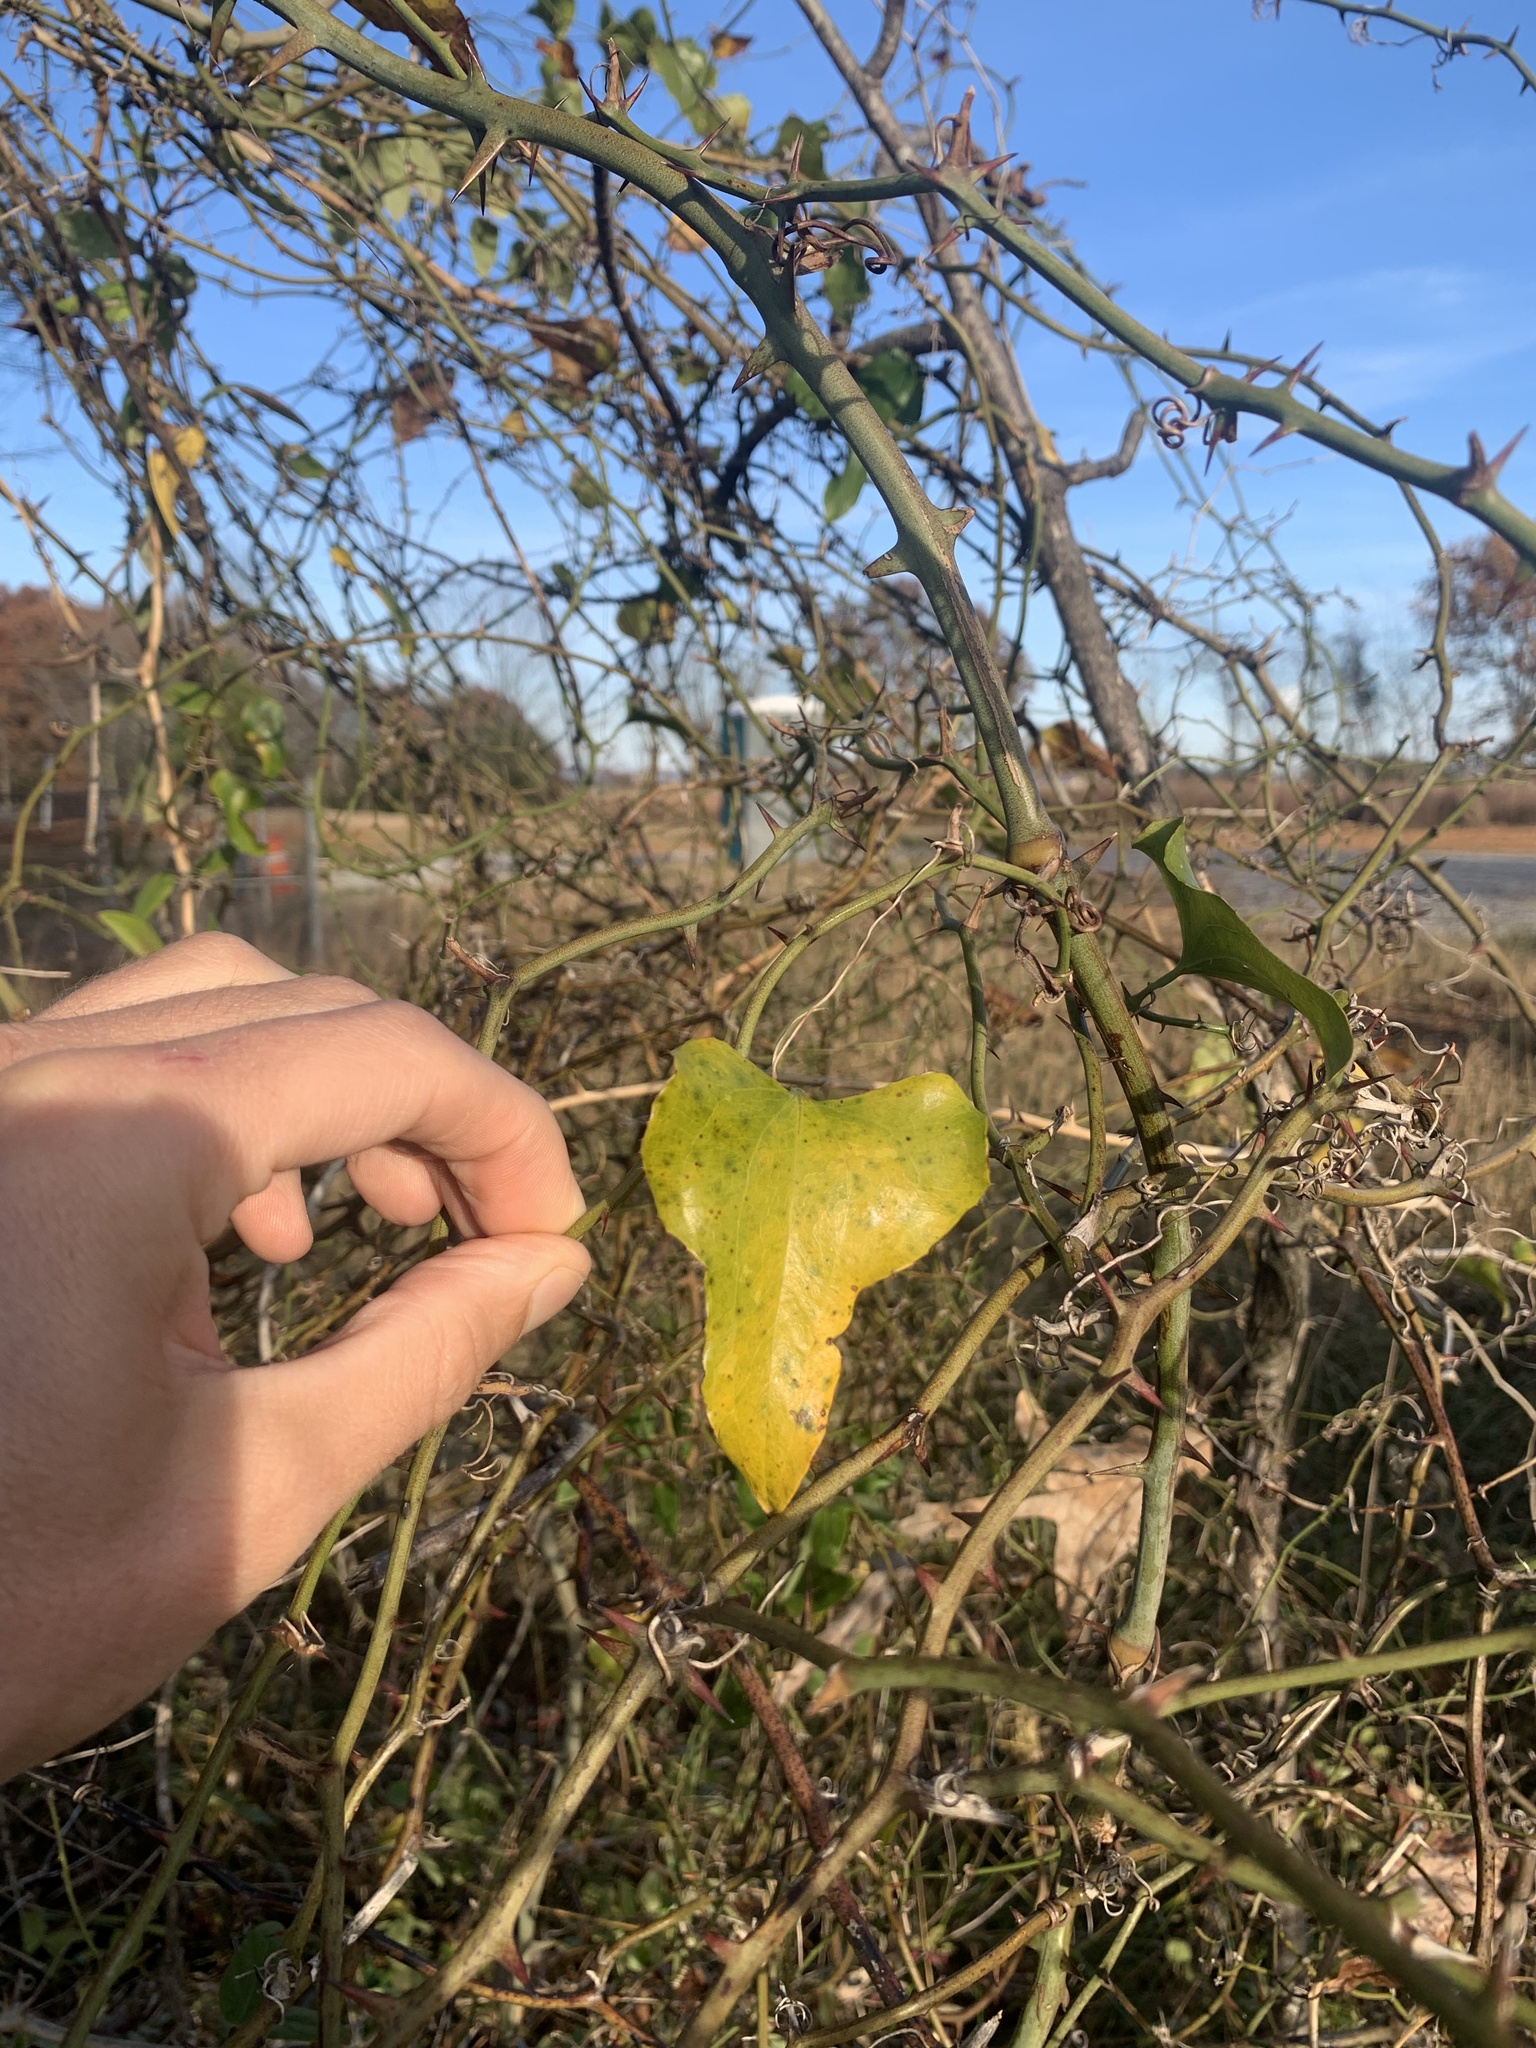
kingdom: Plantae
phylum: Tracheophyta
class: Liliopsida
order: Liliales
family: Smilacaceae
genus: Smilax
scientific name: Smilax bona-nox
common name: Catbrier
